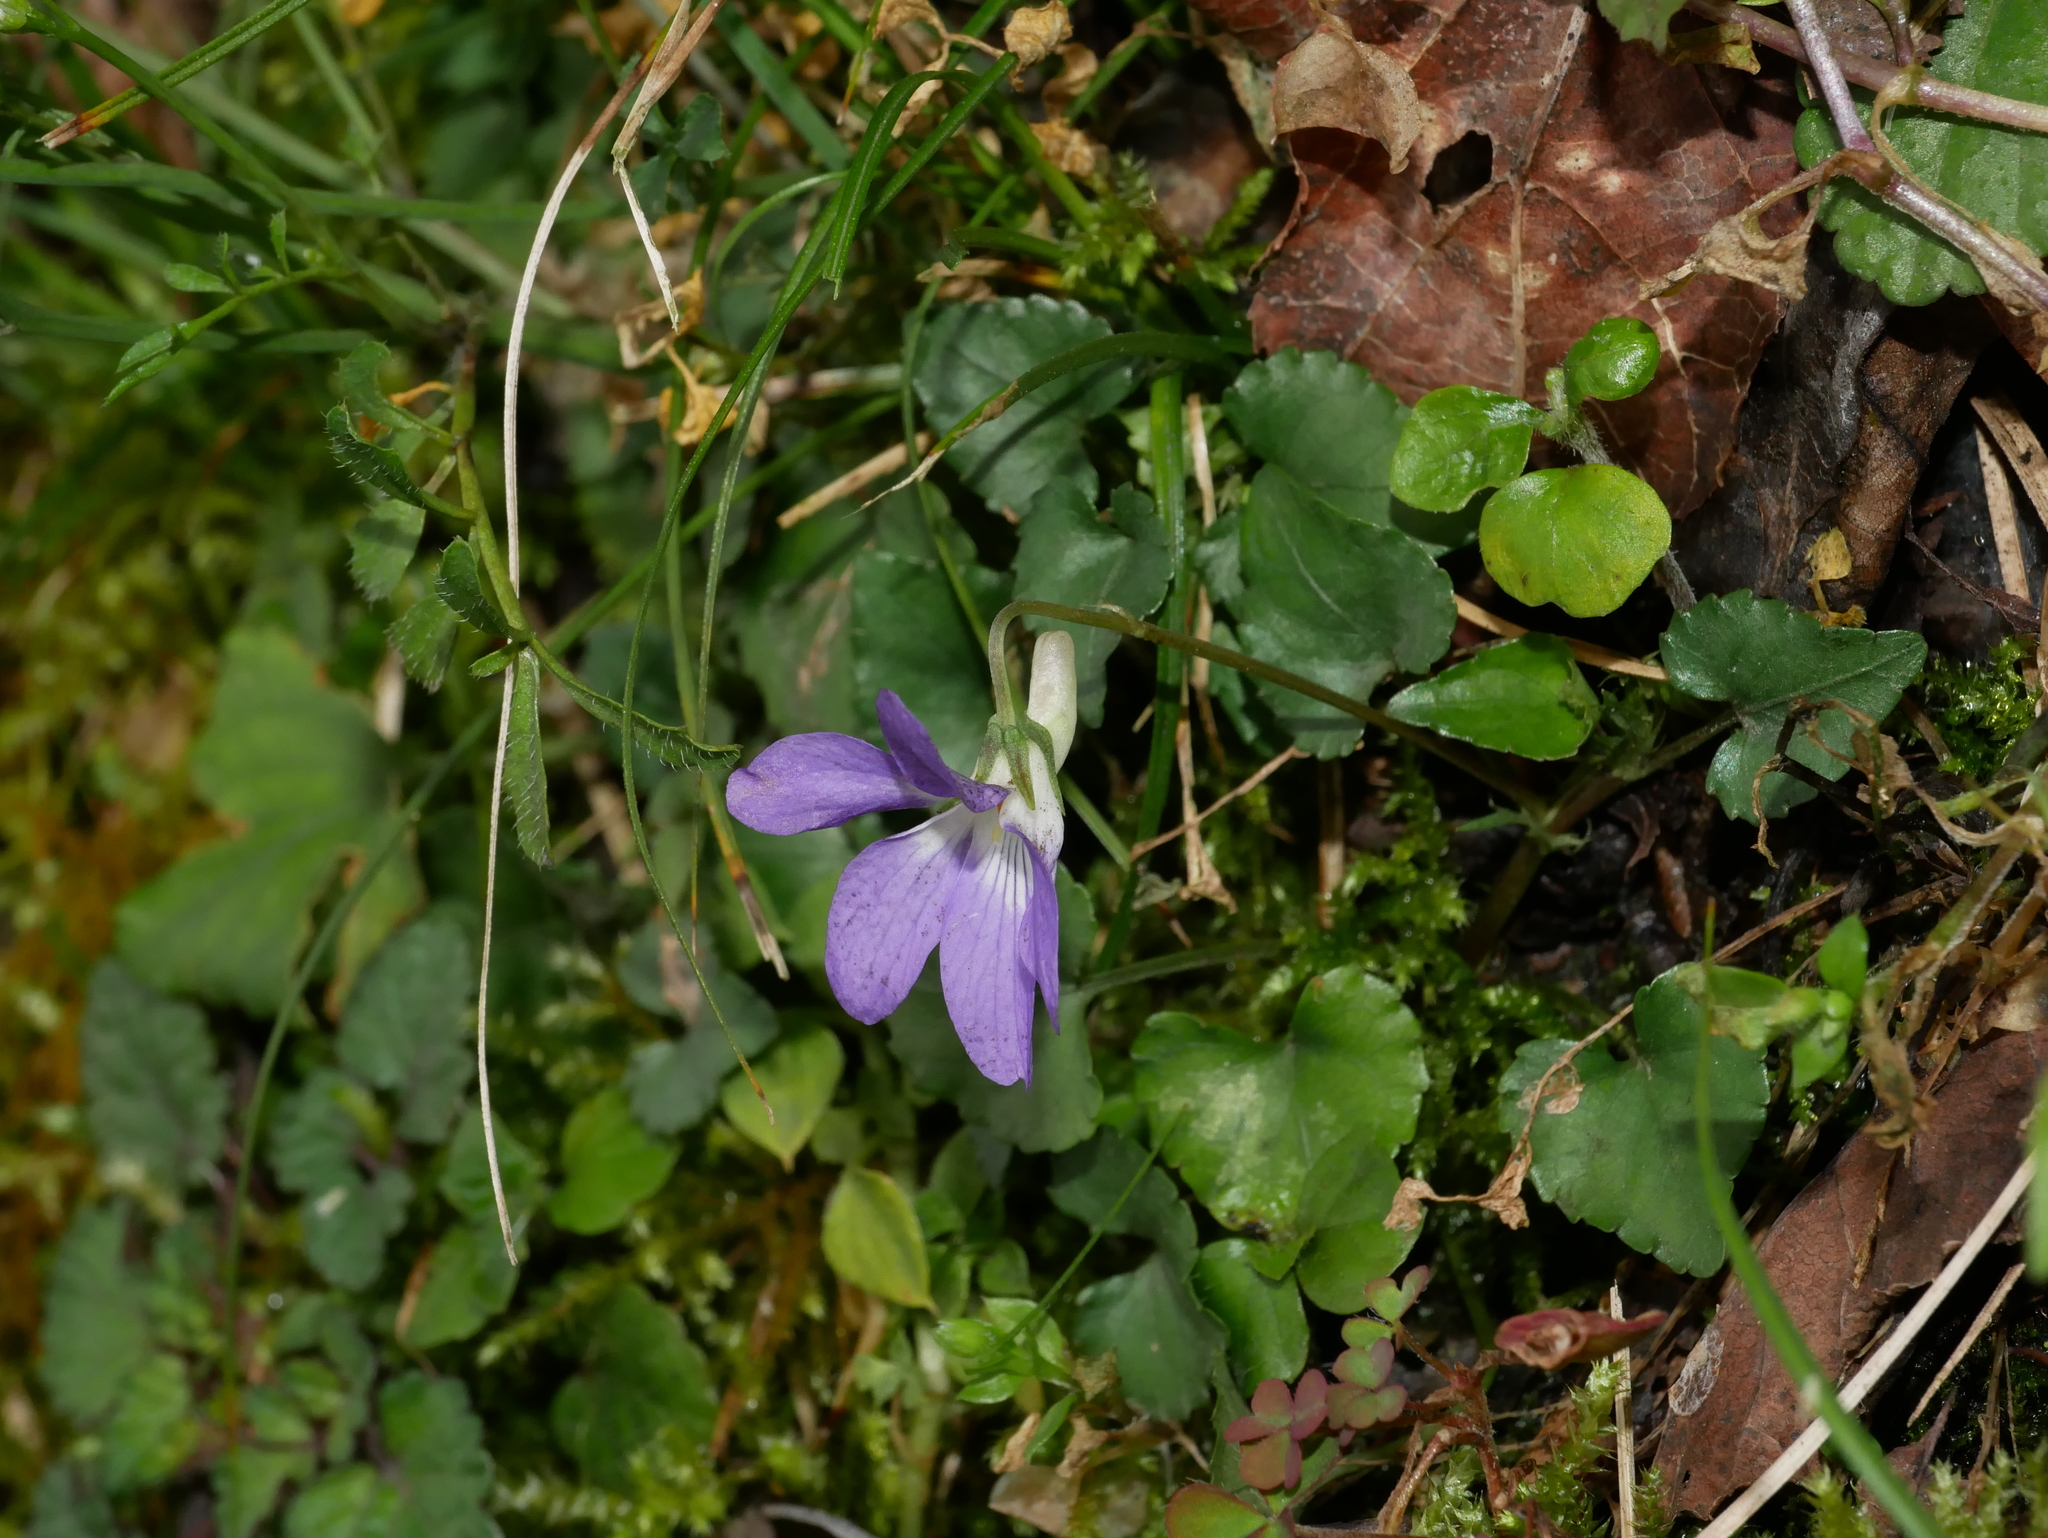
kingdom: Plantae
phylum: Tracheophyta
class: Magnoliopsida
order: Malpighiales
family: Violaceae
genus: Viola
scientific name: Viola grypoceras
